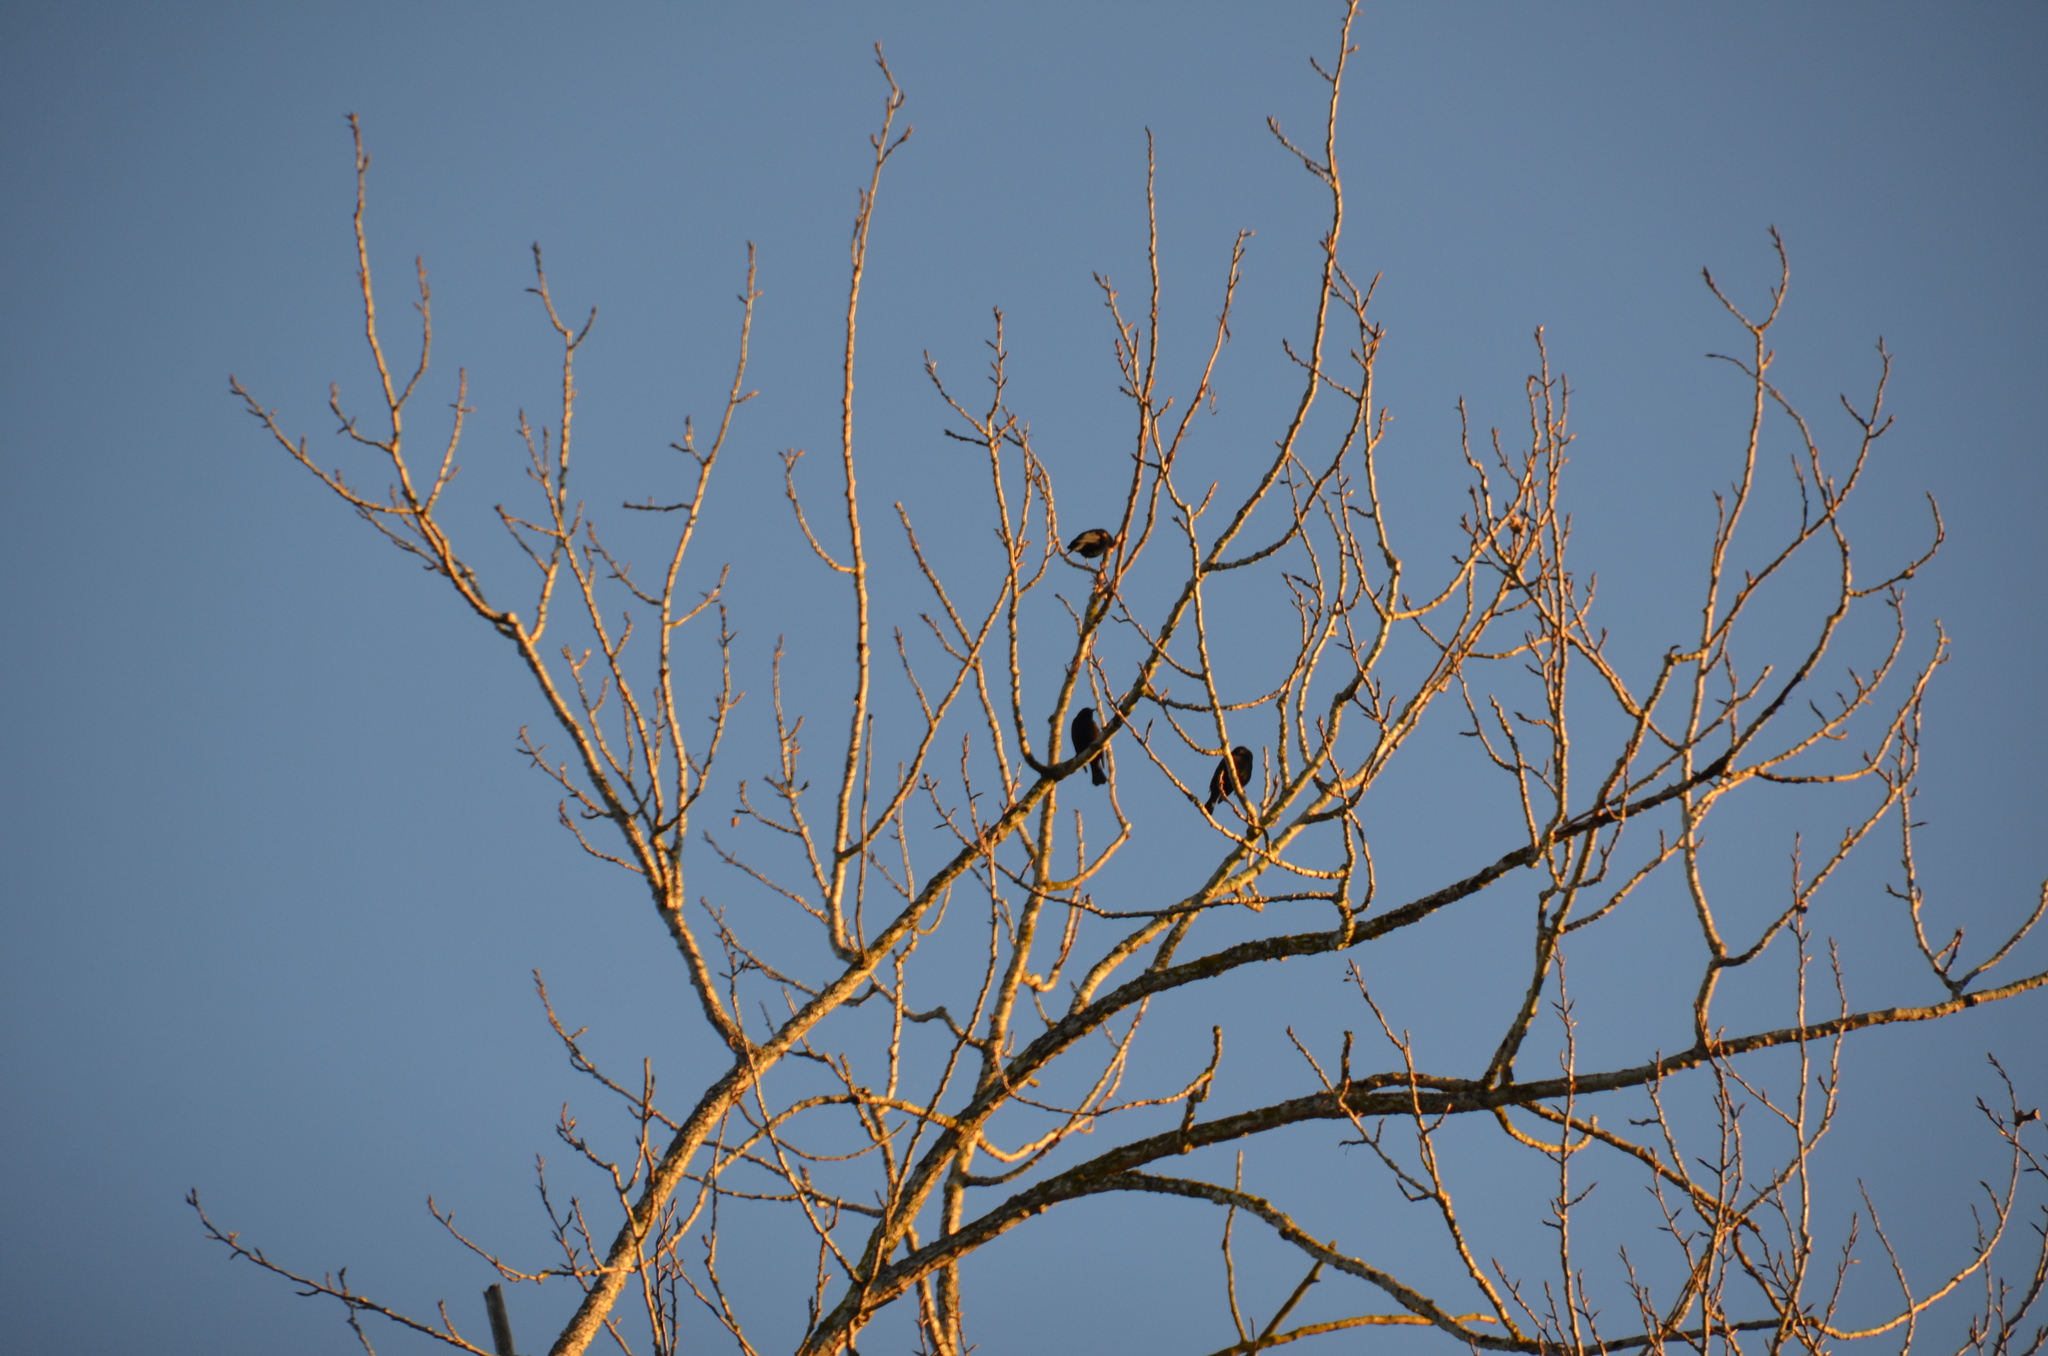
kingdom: Animalia
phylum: Chordata
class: Aves
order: Passeriformes
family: Icteridae
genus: Agelaius
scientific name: Agelaius phoeniceus
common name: Red-winged blackbird
